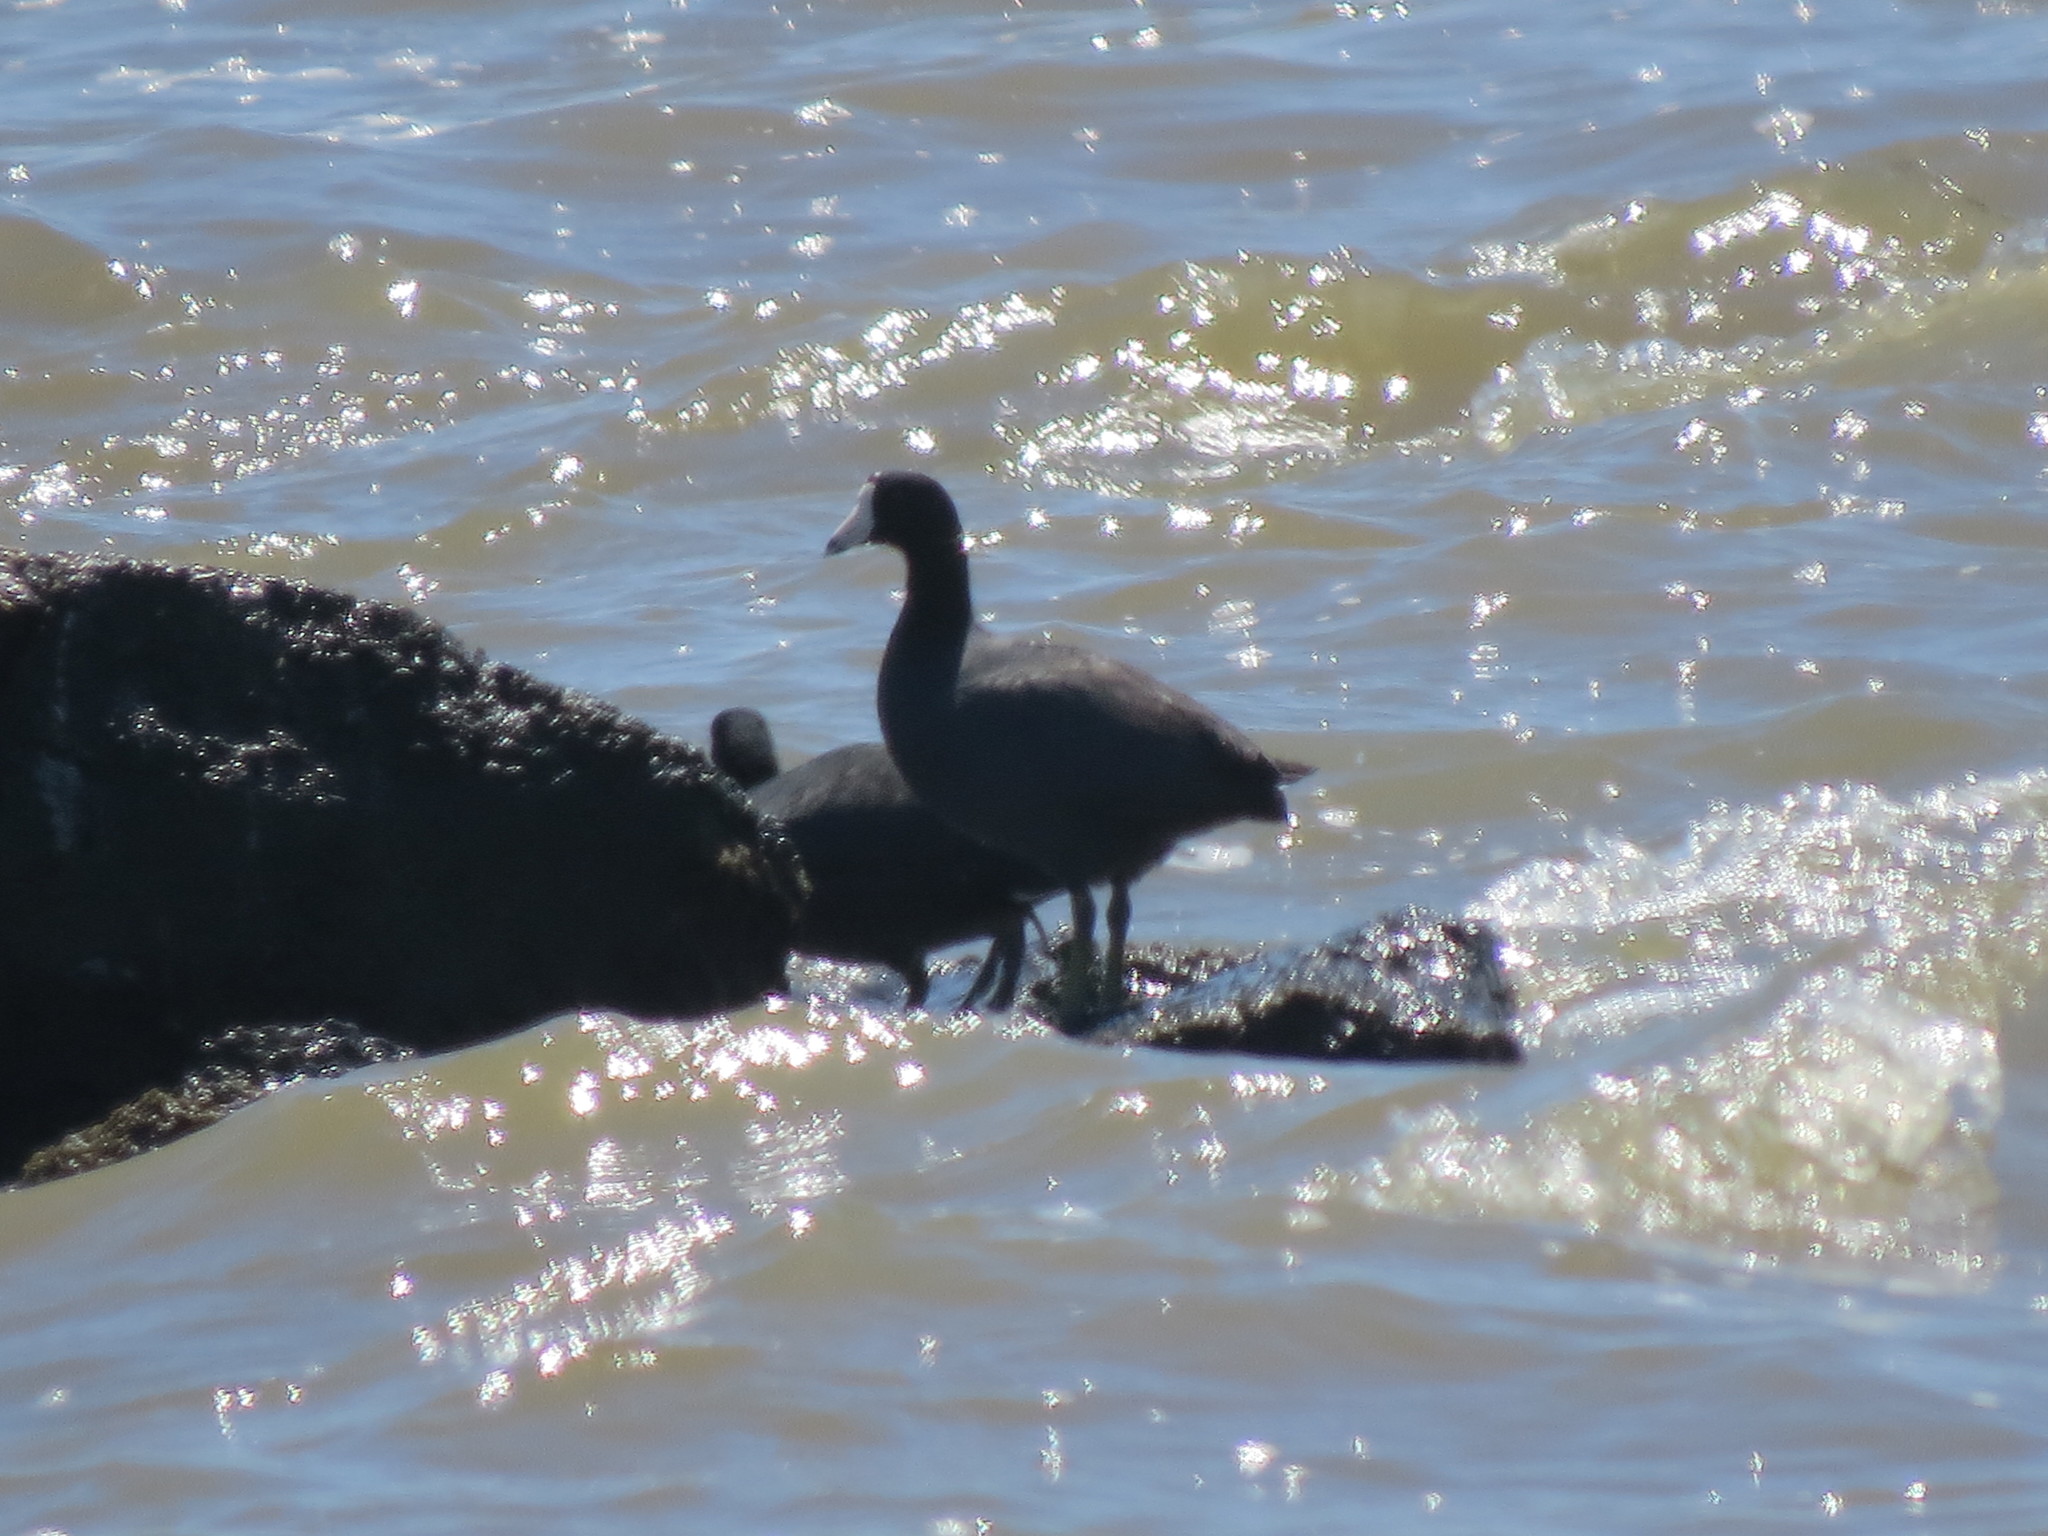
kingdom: Animalia
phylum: Chordata
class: Aves
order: Gruiformes
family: Rallidae
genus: Fulica
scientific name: Fulica americana
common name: American coot
